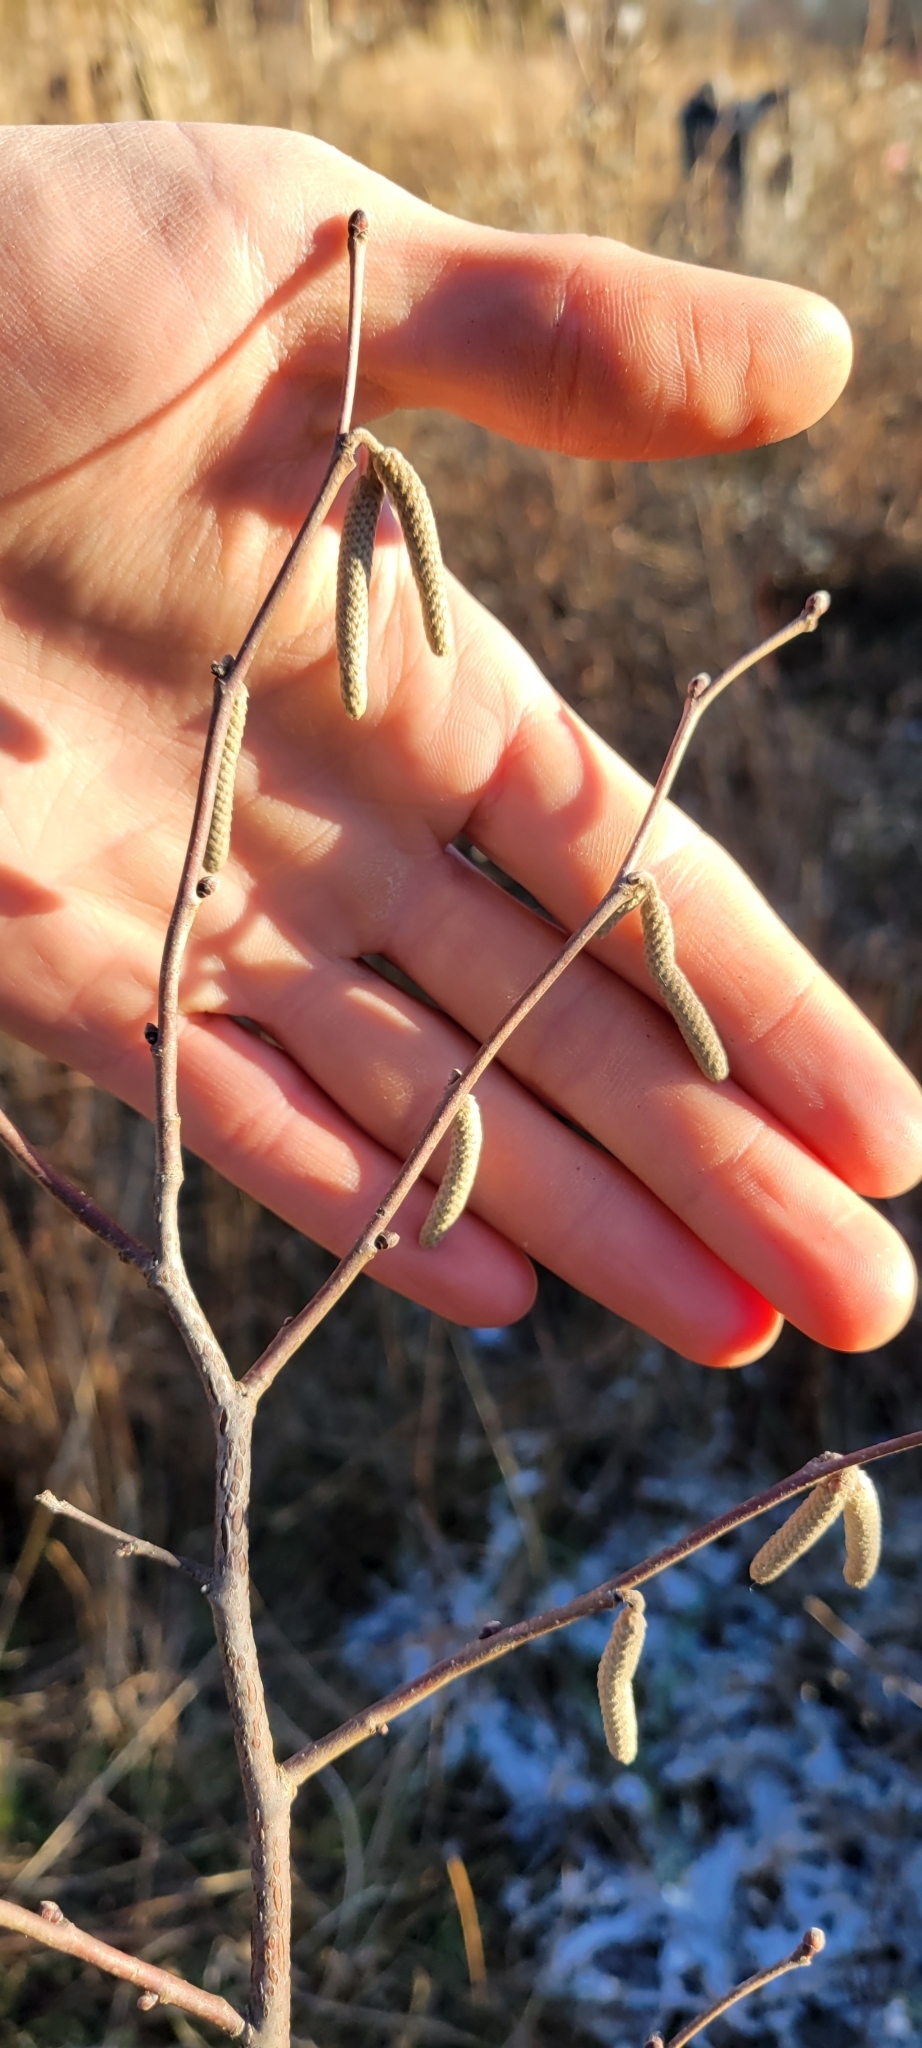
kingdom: Plantae
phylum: Tracheophyta
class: Magnoliopsida
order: Fagales
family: Betulaceae
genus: Corylus
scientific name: Corylus americana
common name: American hazel
